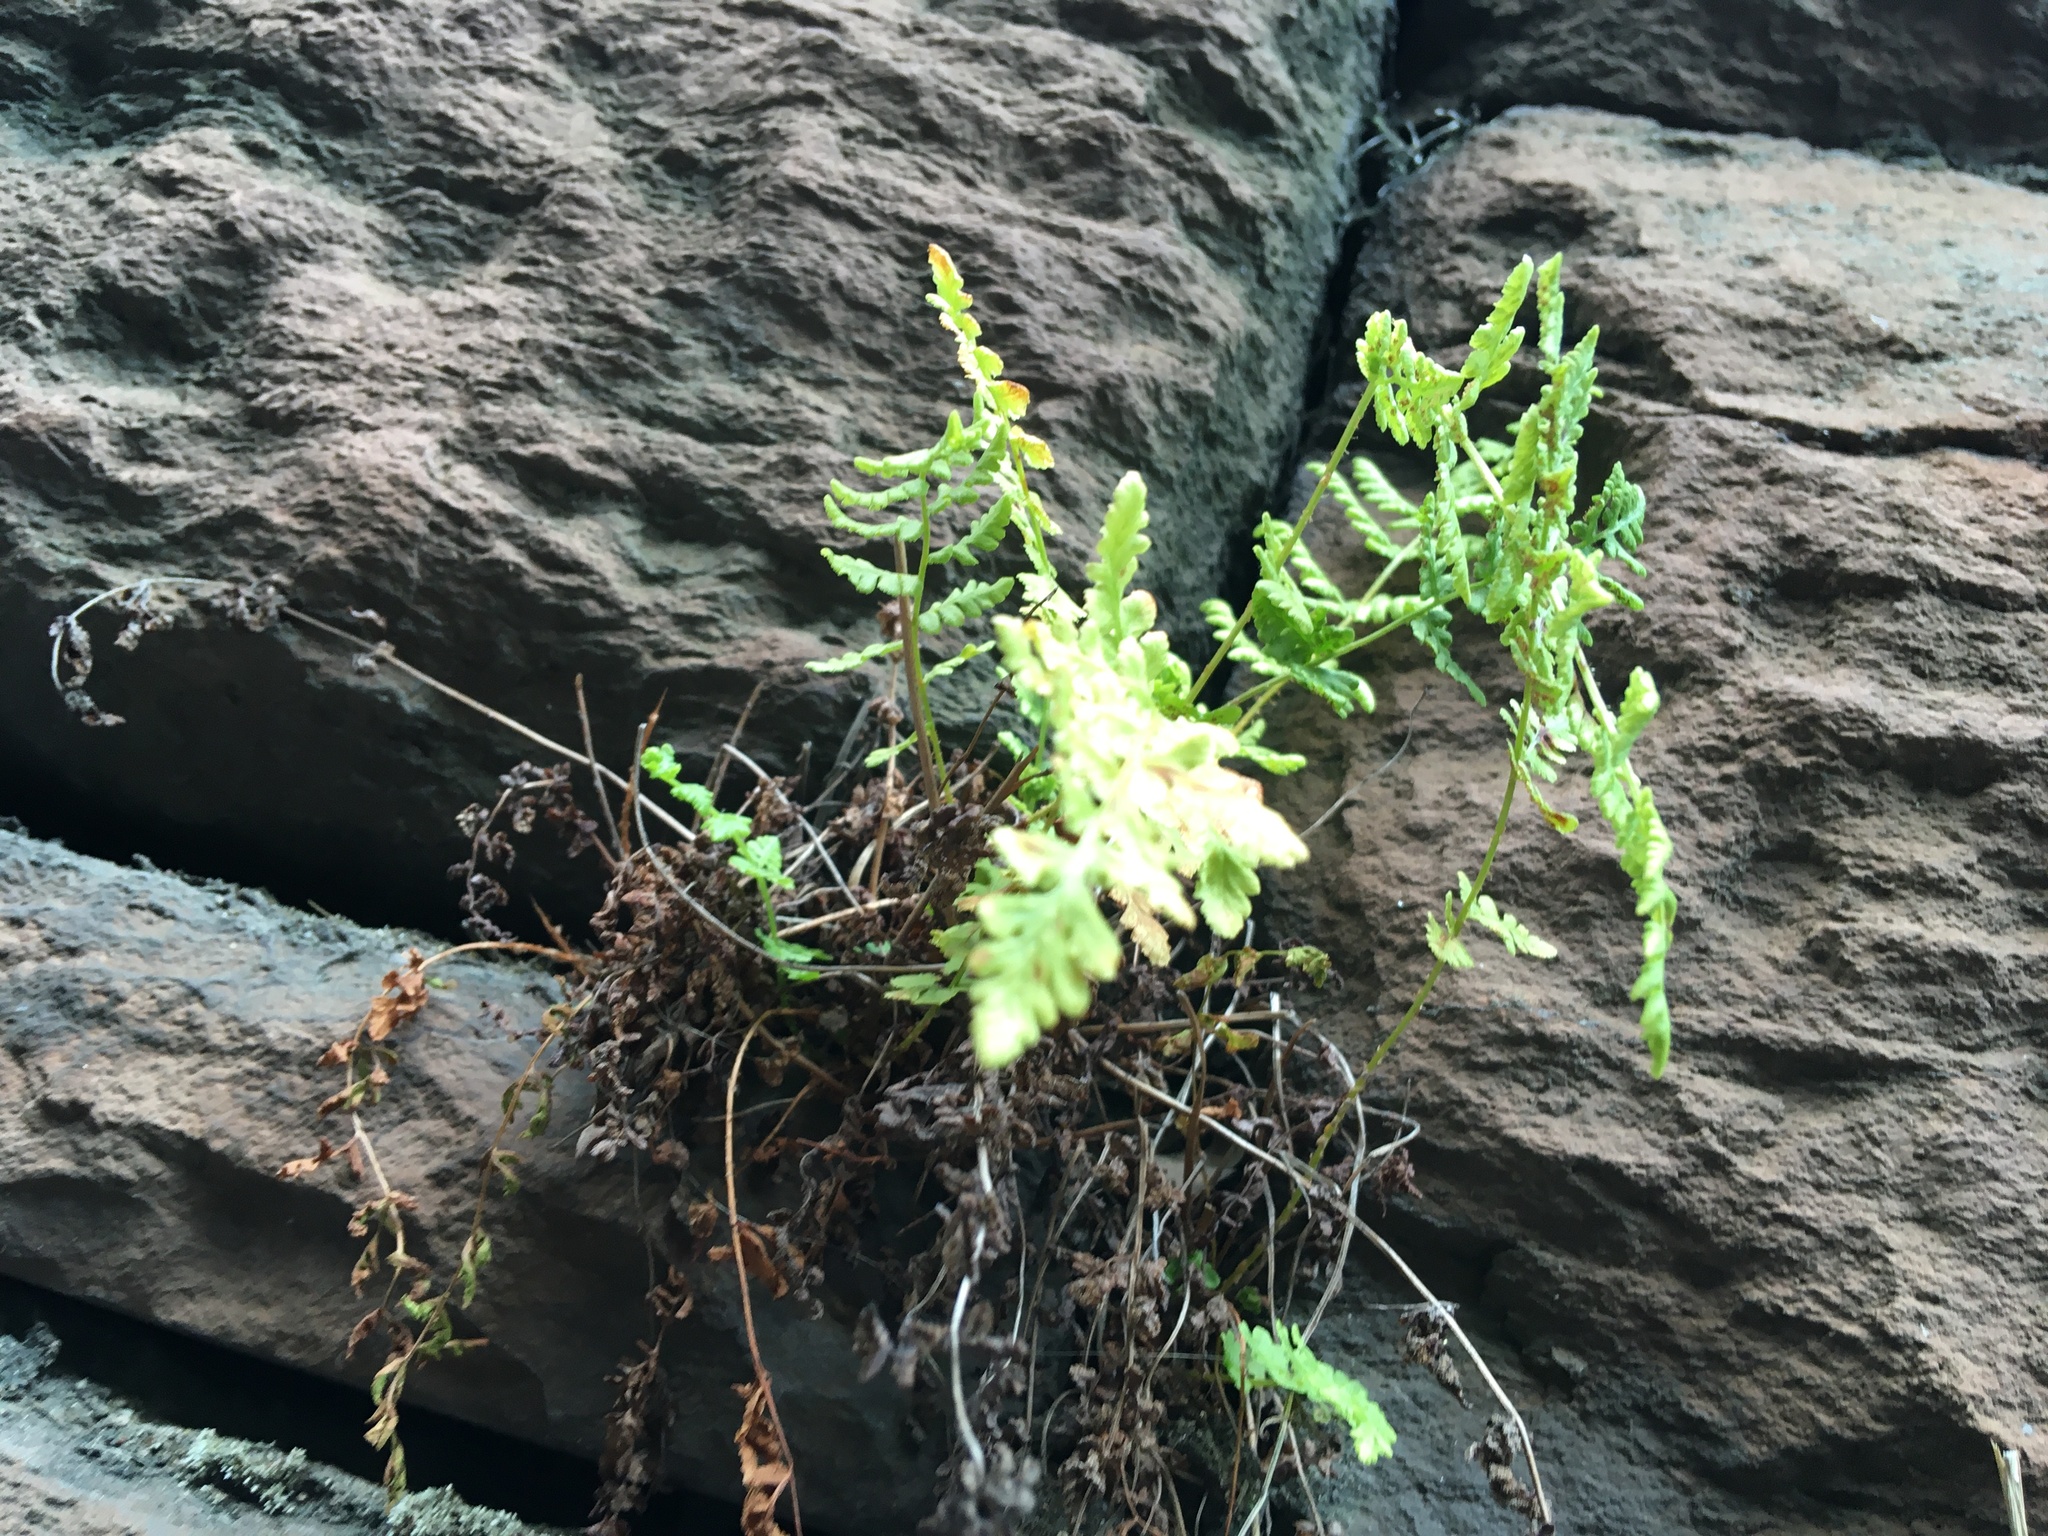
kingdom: Plantae
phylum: Tracheophyta
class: Polypodiopsida
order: Polypodiales
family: Woodsiaceae
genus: Physematium
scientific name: Physematium obtusum
